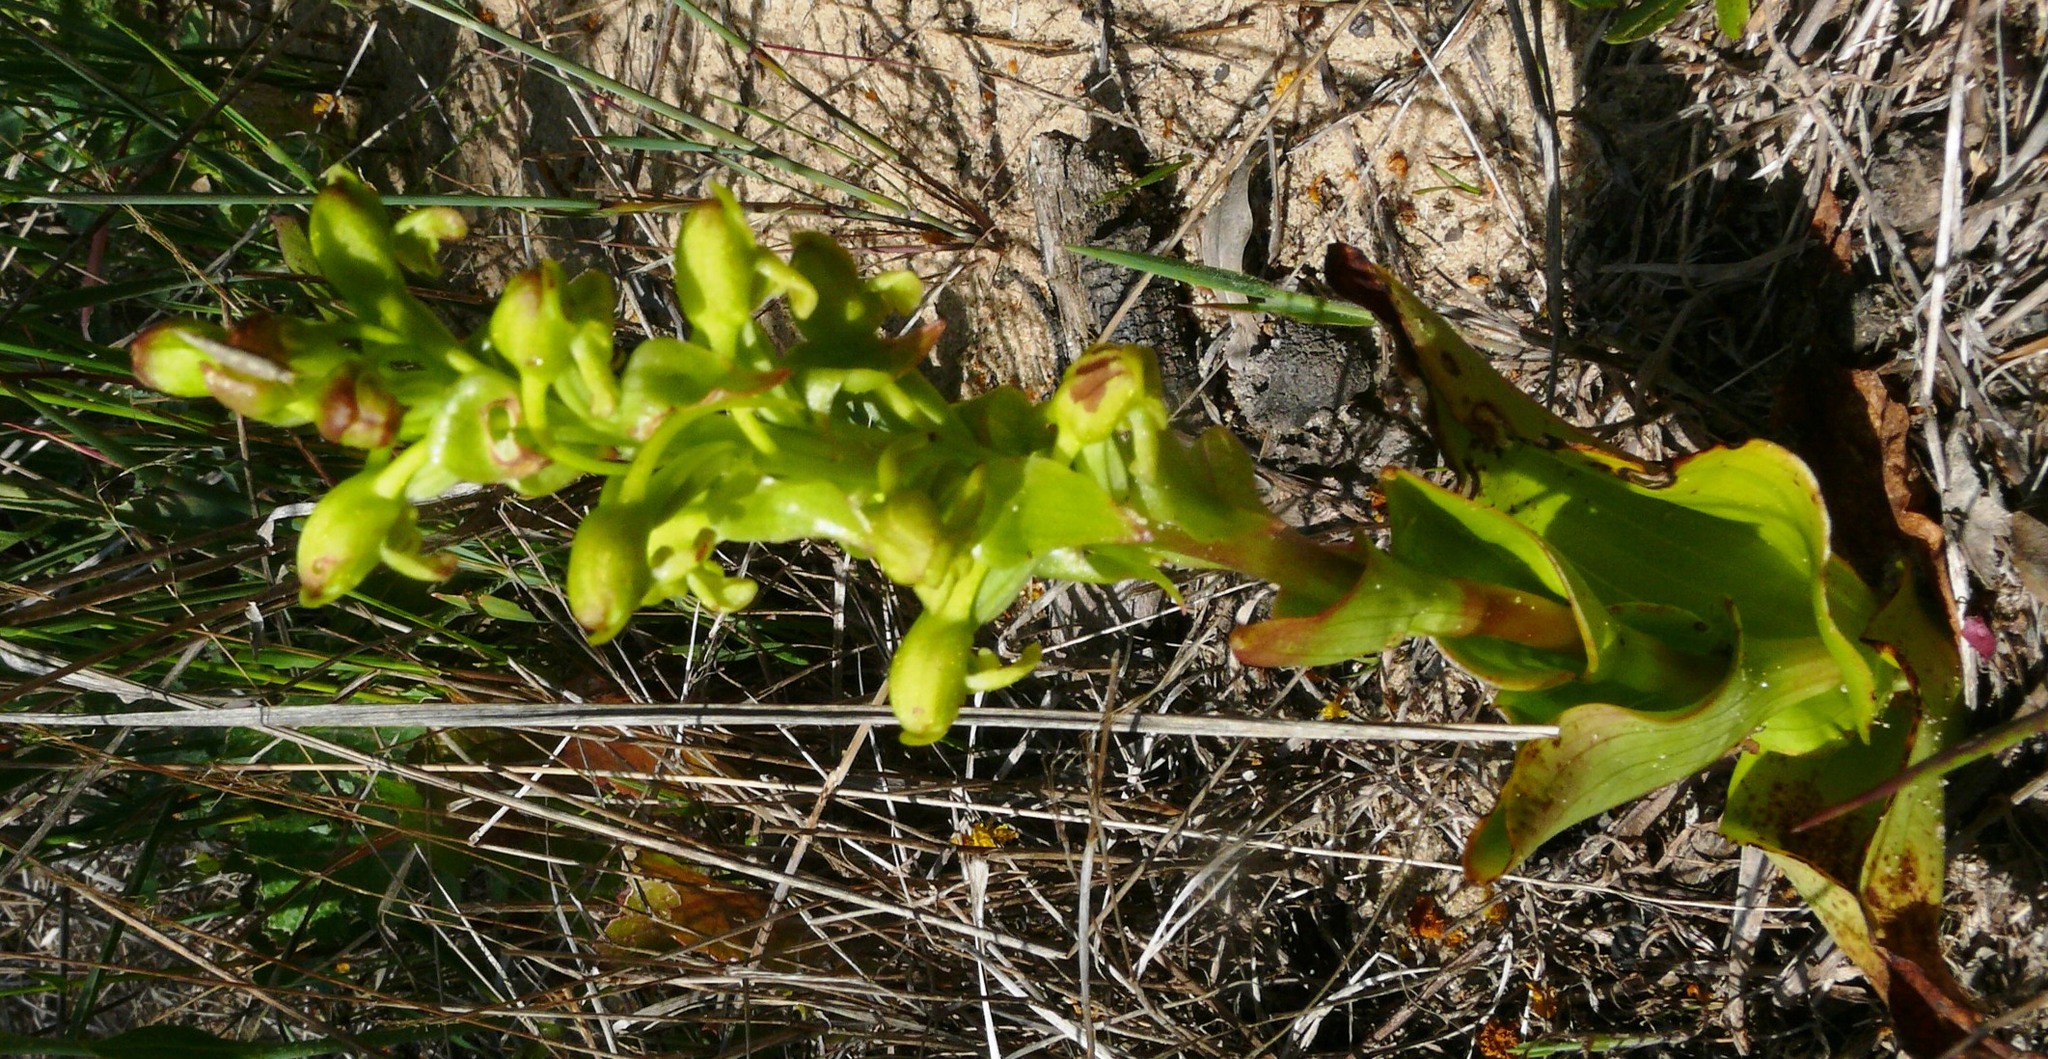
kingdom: Plantae
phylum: Tracheophyta
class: Liliopsida
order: Asparagales
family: Orchidaceae
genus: Satyrium
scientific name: Satyrium odorum
